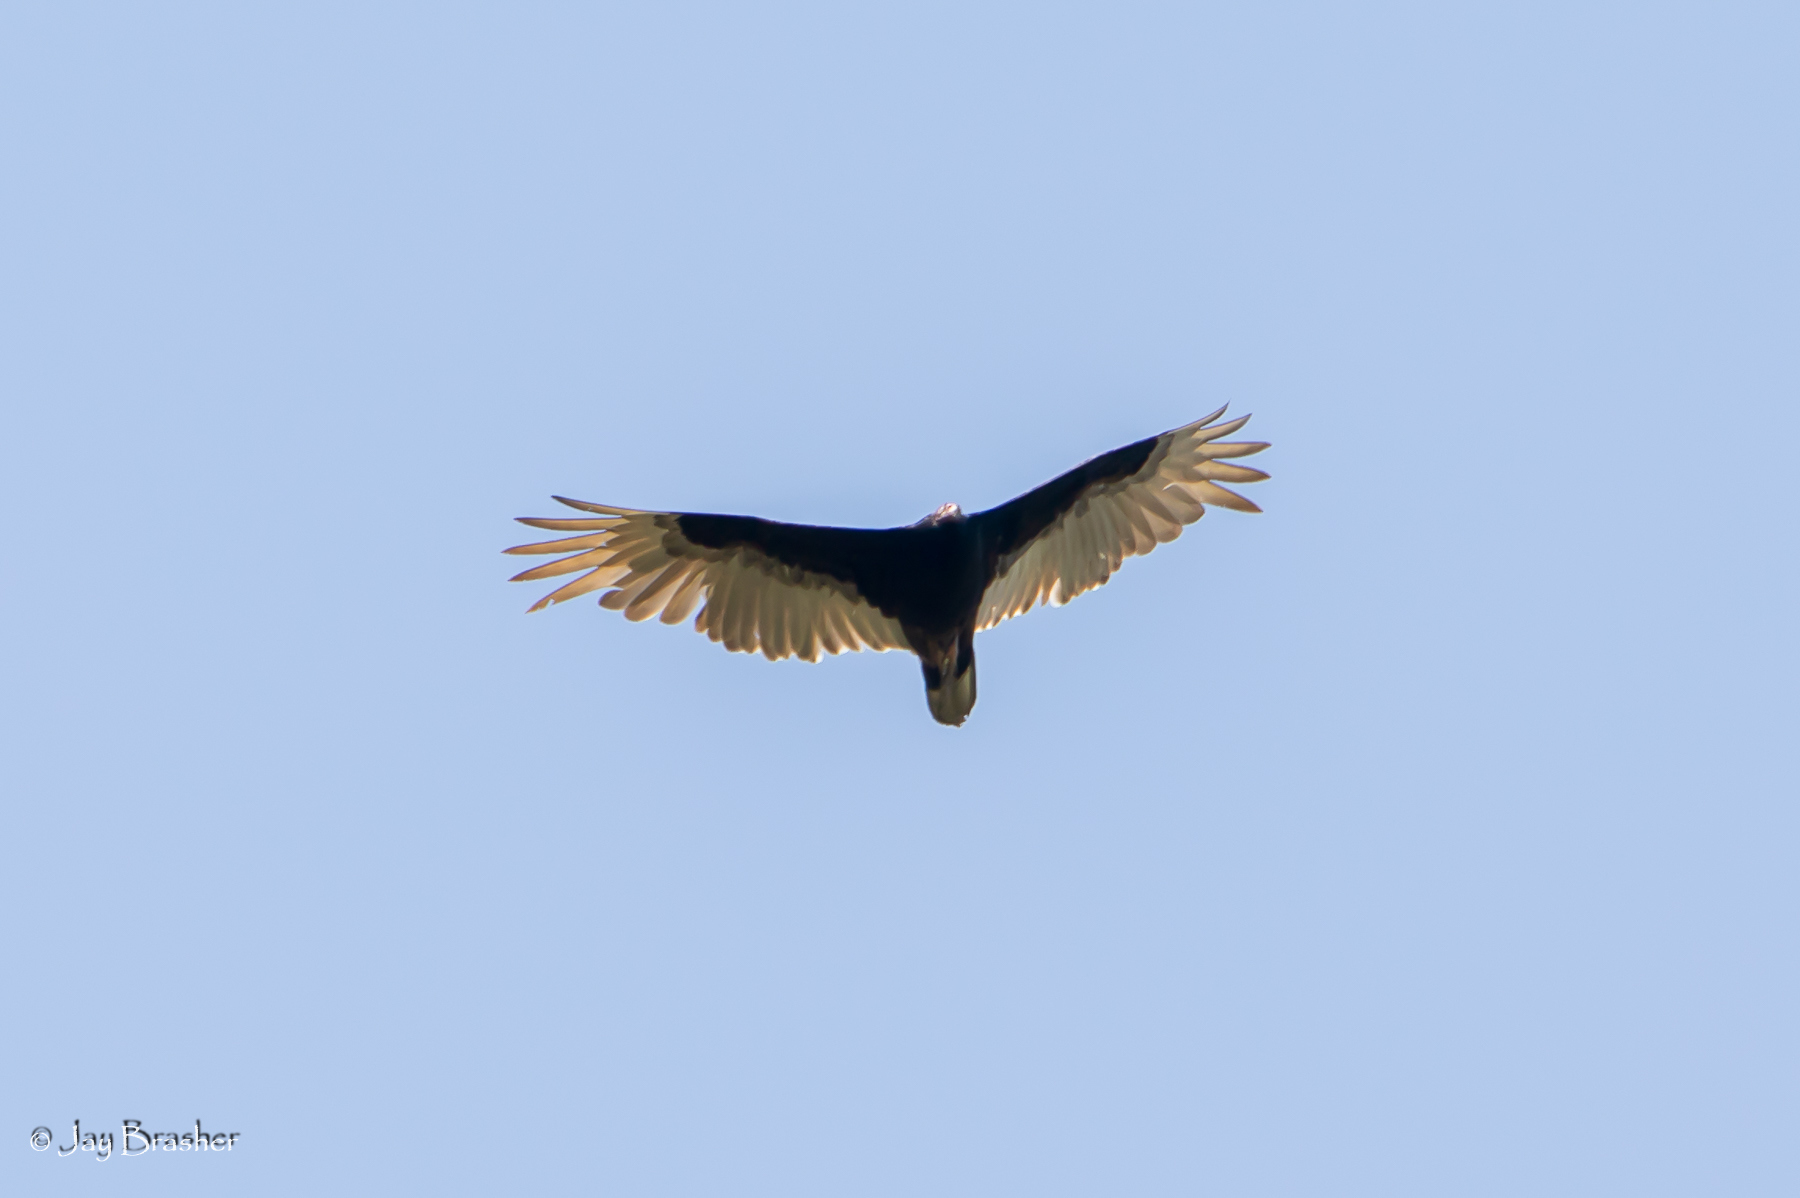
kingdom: Animalia
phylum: Chordata
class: Aves
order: Accipitriformes
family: Cathartidae
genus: Cathartes
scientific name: Cathartes aura
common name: Turkey vulture
